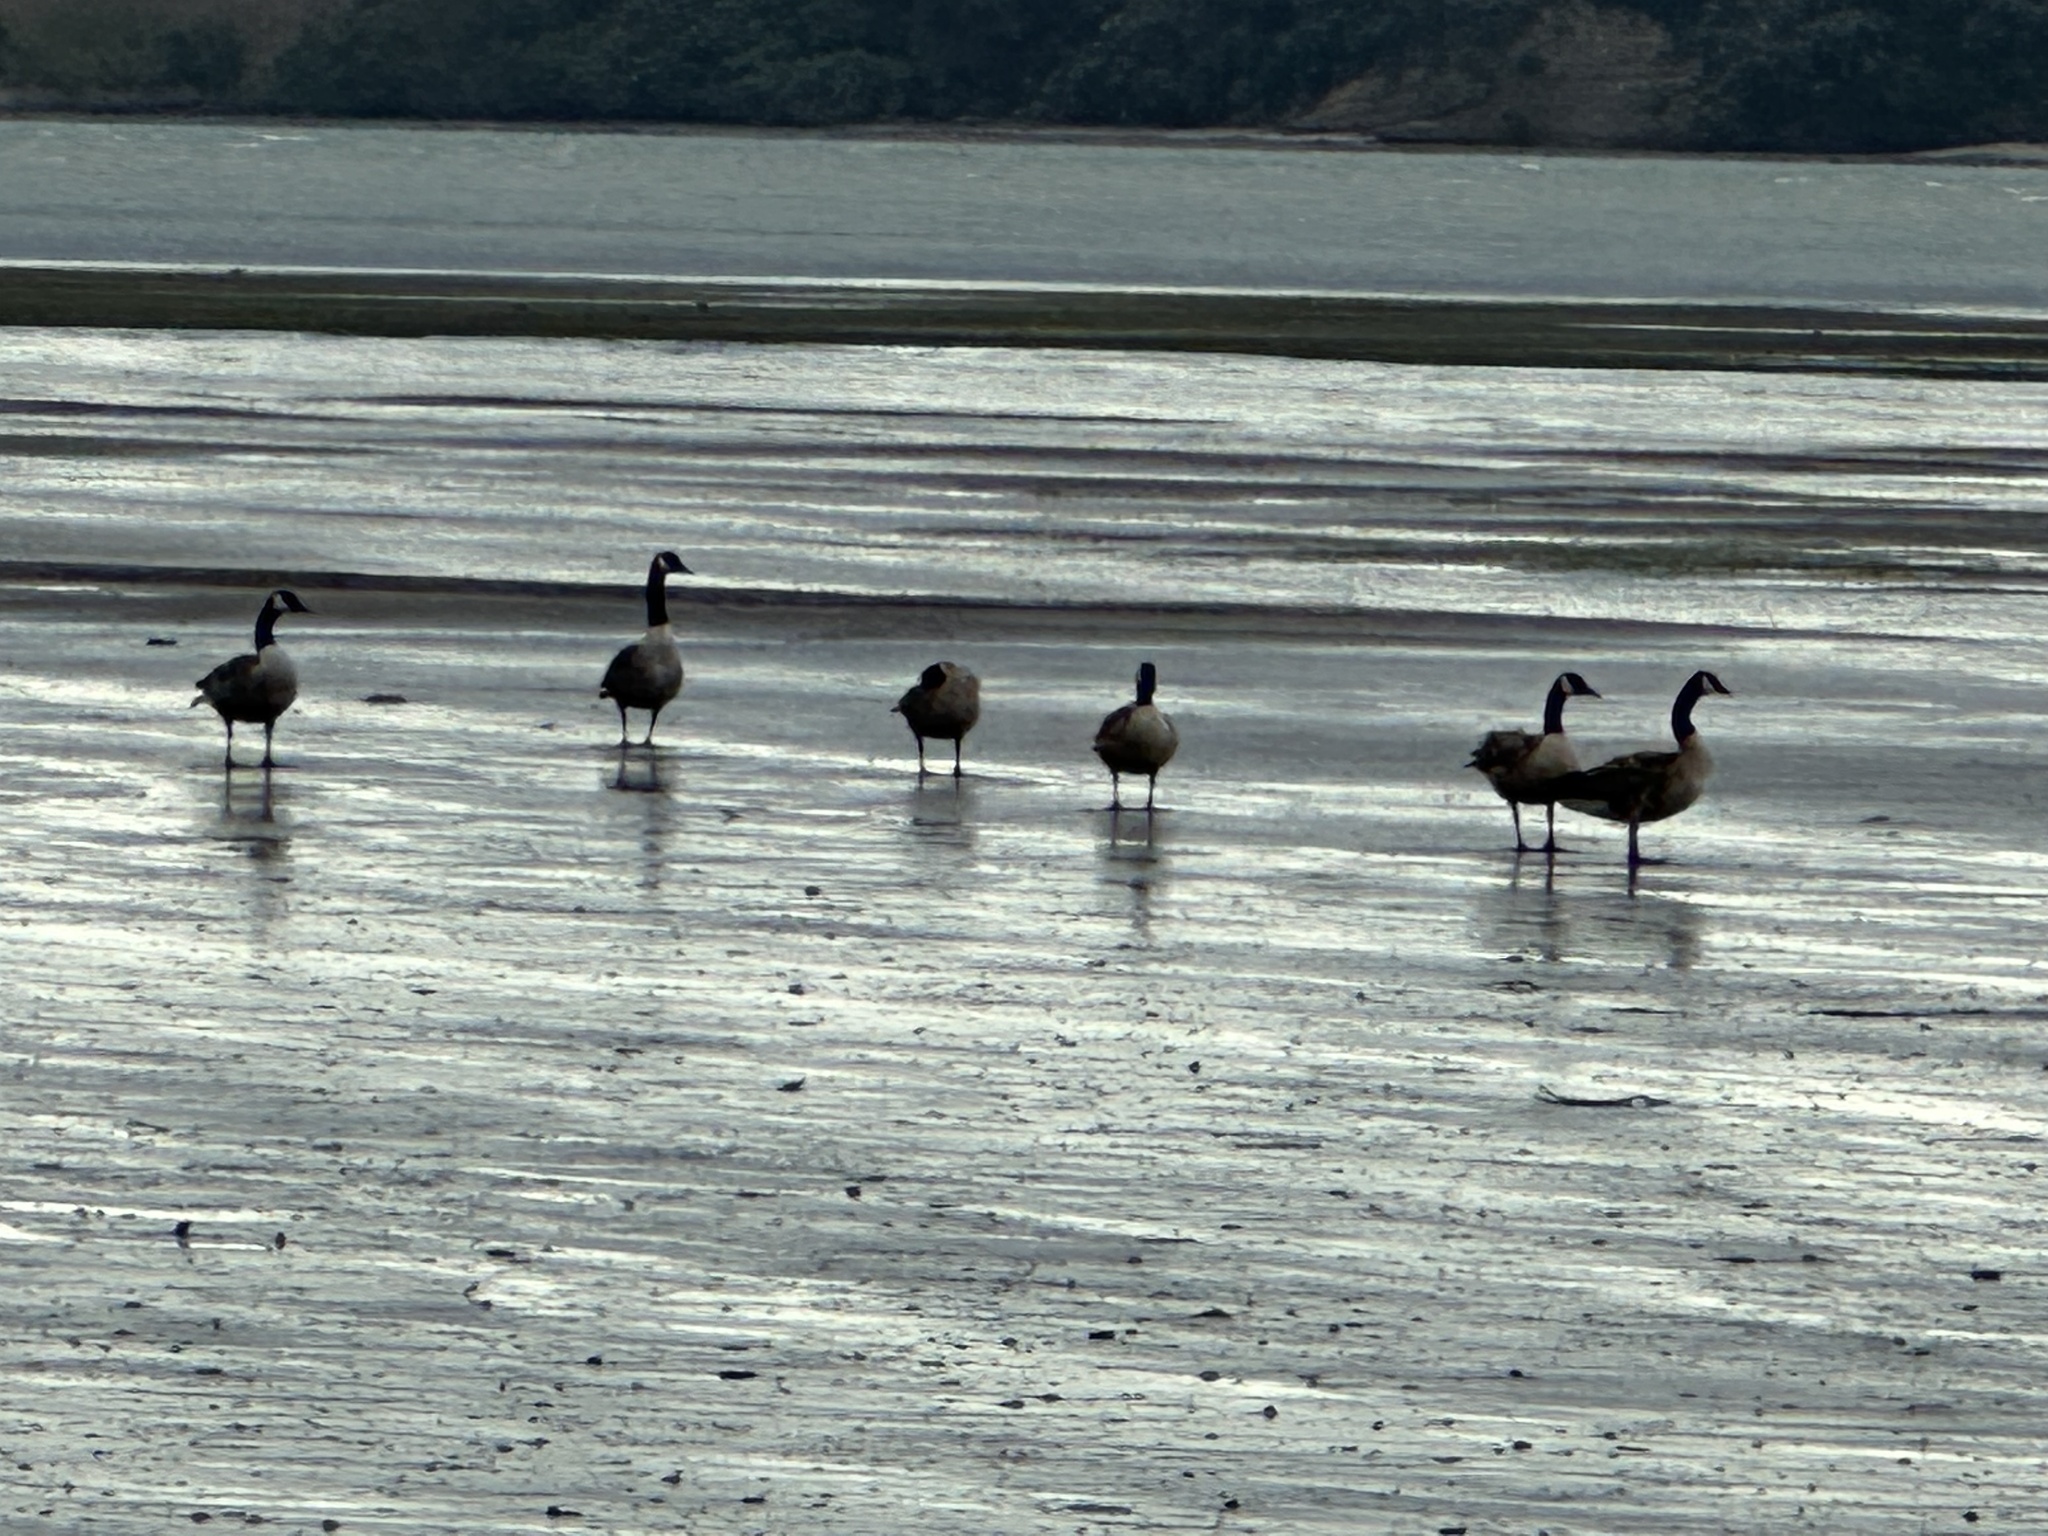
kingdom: Animalia
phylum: Chordata
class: Aves
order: Anseriformes
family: Anatidae
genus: Branta
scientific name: Branta canadensis
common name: Canada goose
